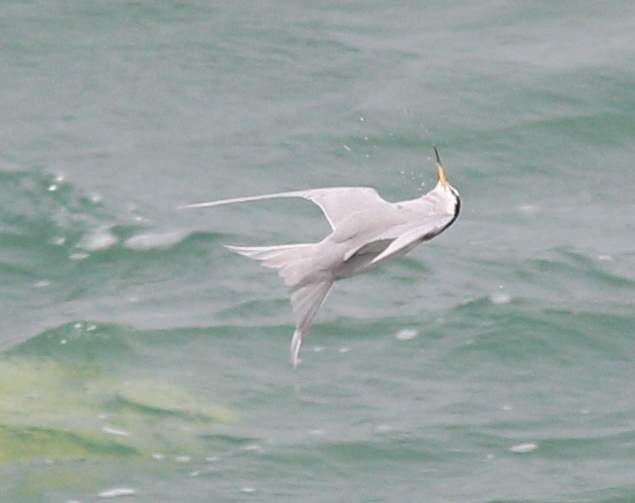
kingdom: Animalia
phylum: Chordata
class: Aves
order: Charadriiformes
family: Laridae
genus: Sternula
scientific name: Sternula lorata
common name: Peruvian tern
